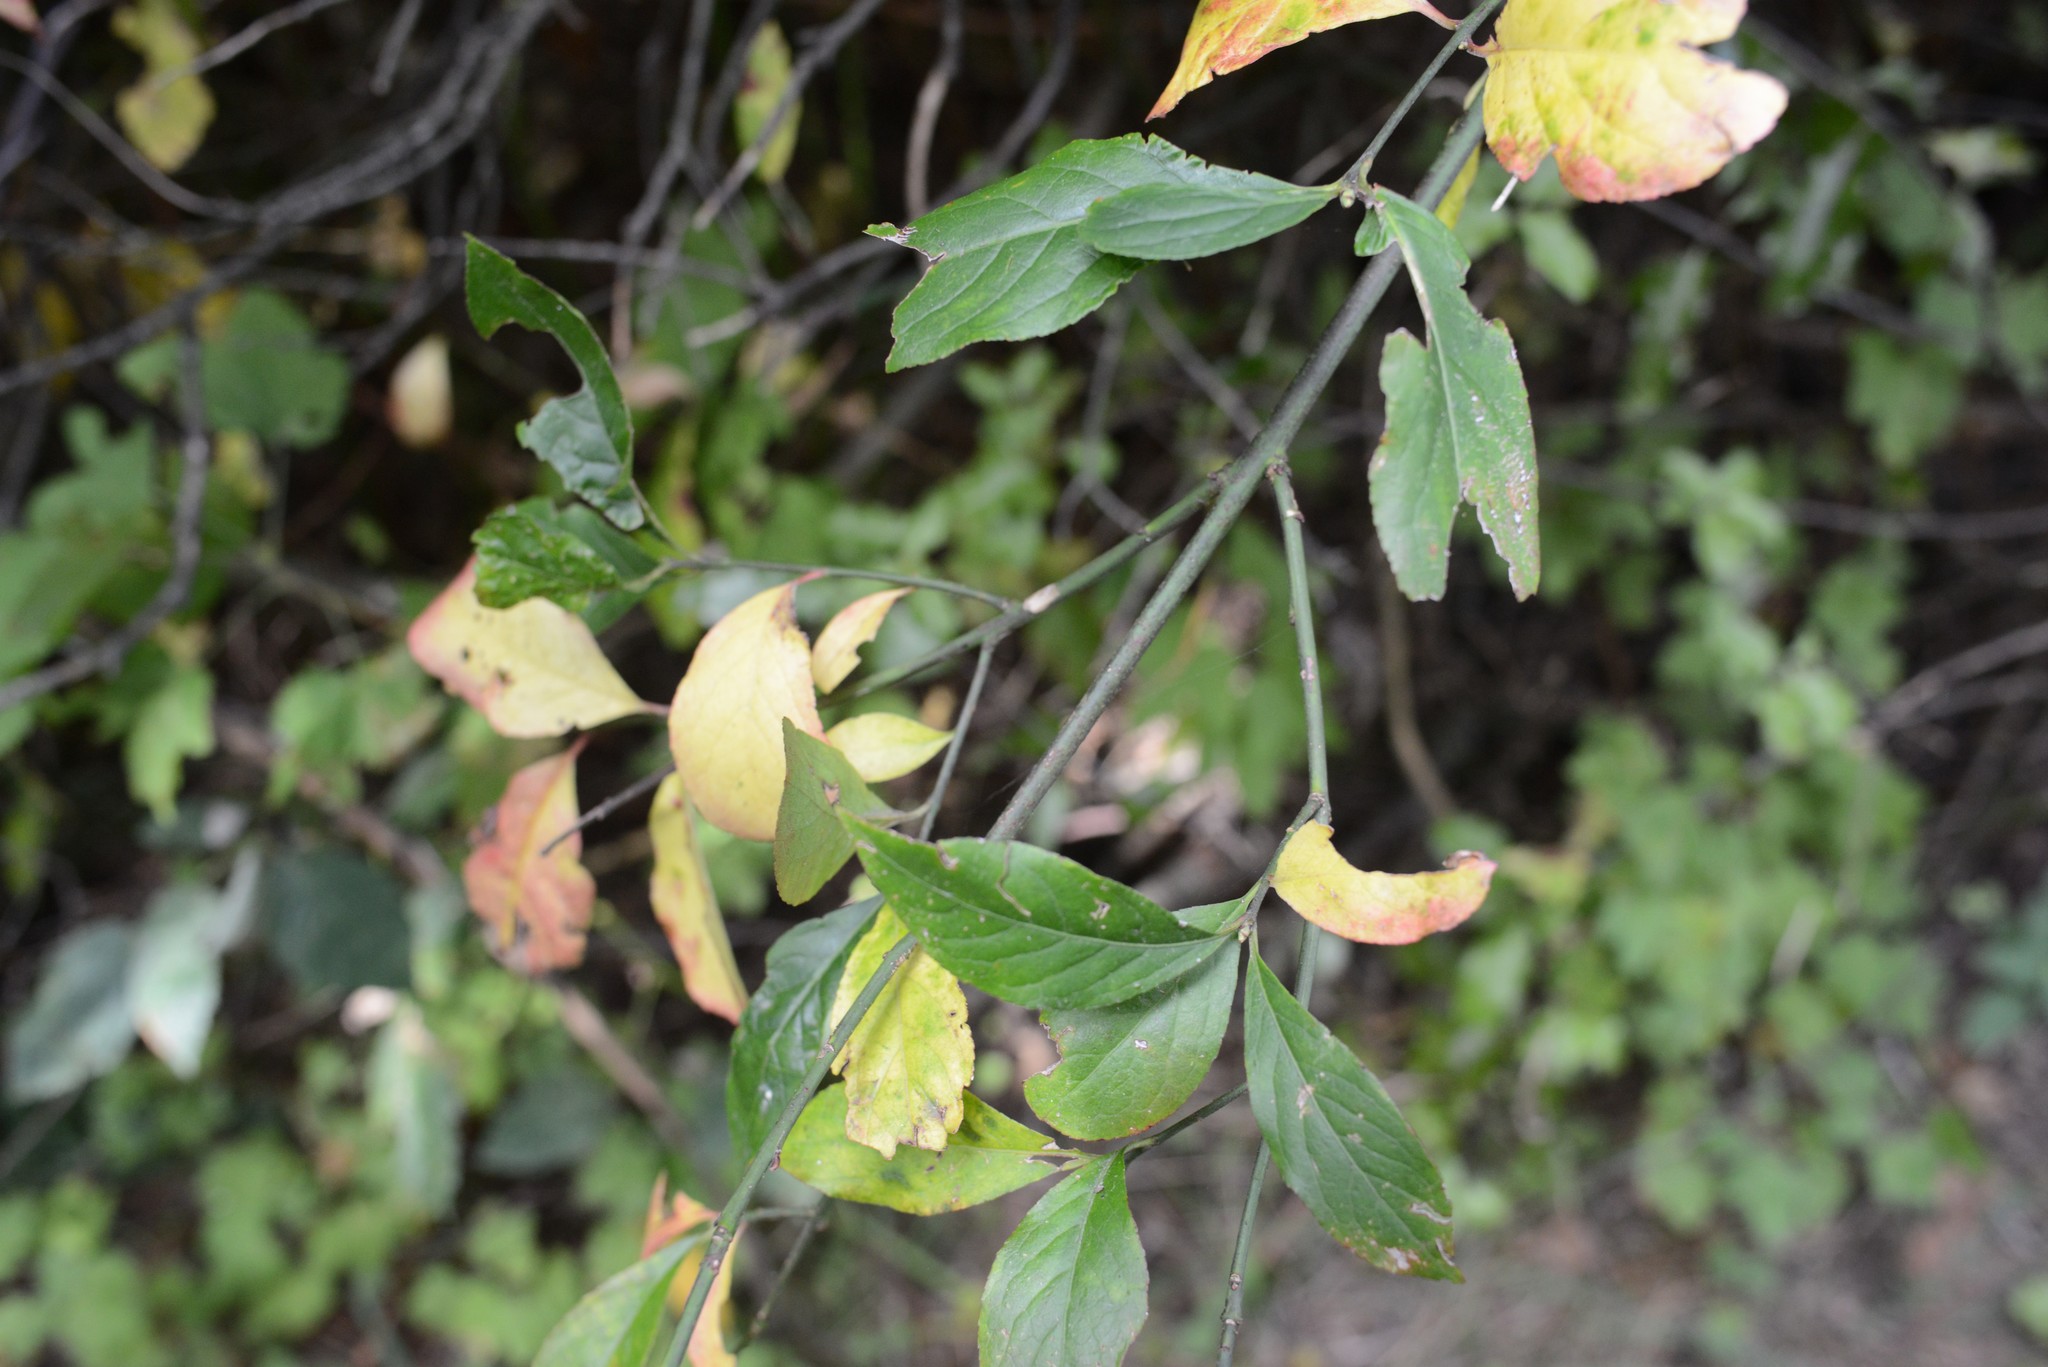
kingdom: Plantae
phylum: Tracheophyta
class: Magnoliopsida
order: Celastrales
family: Celastraceae
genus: Euonymus
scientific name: Euonymus europaeus
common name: Spindle
